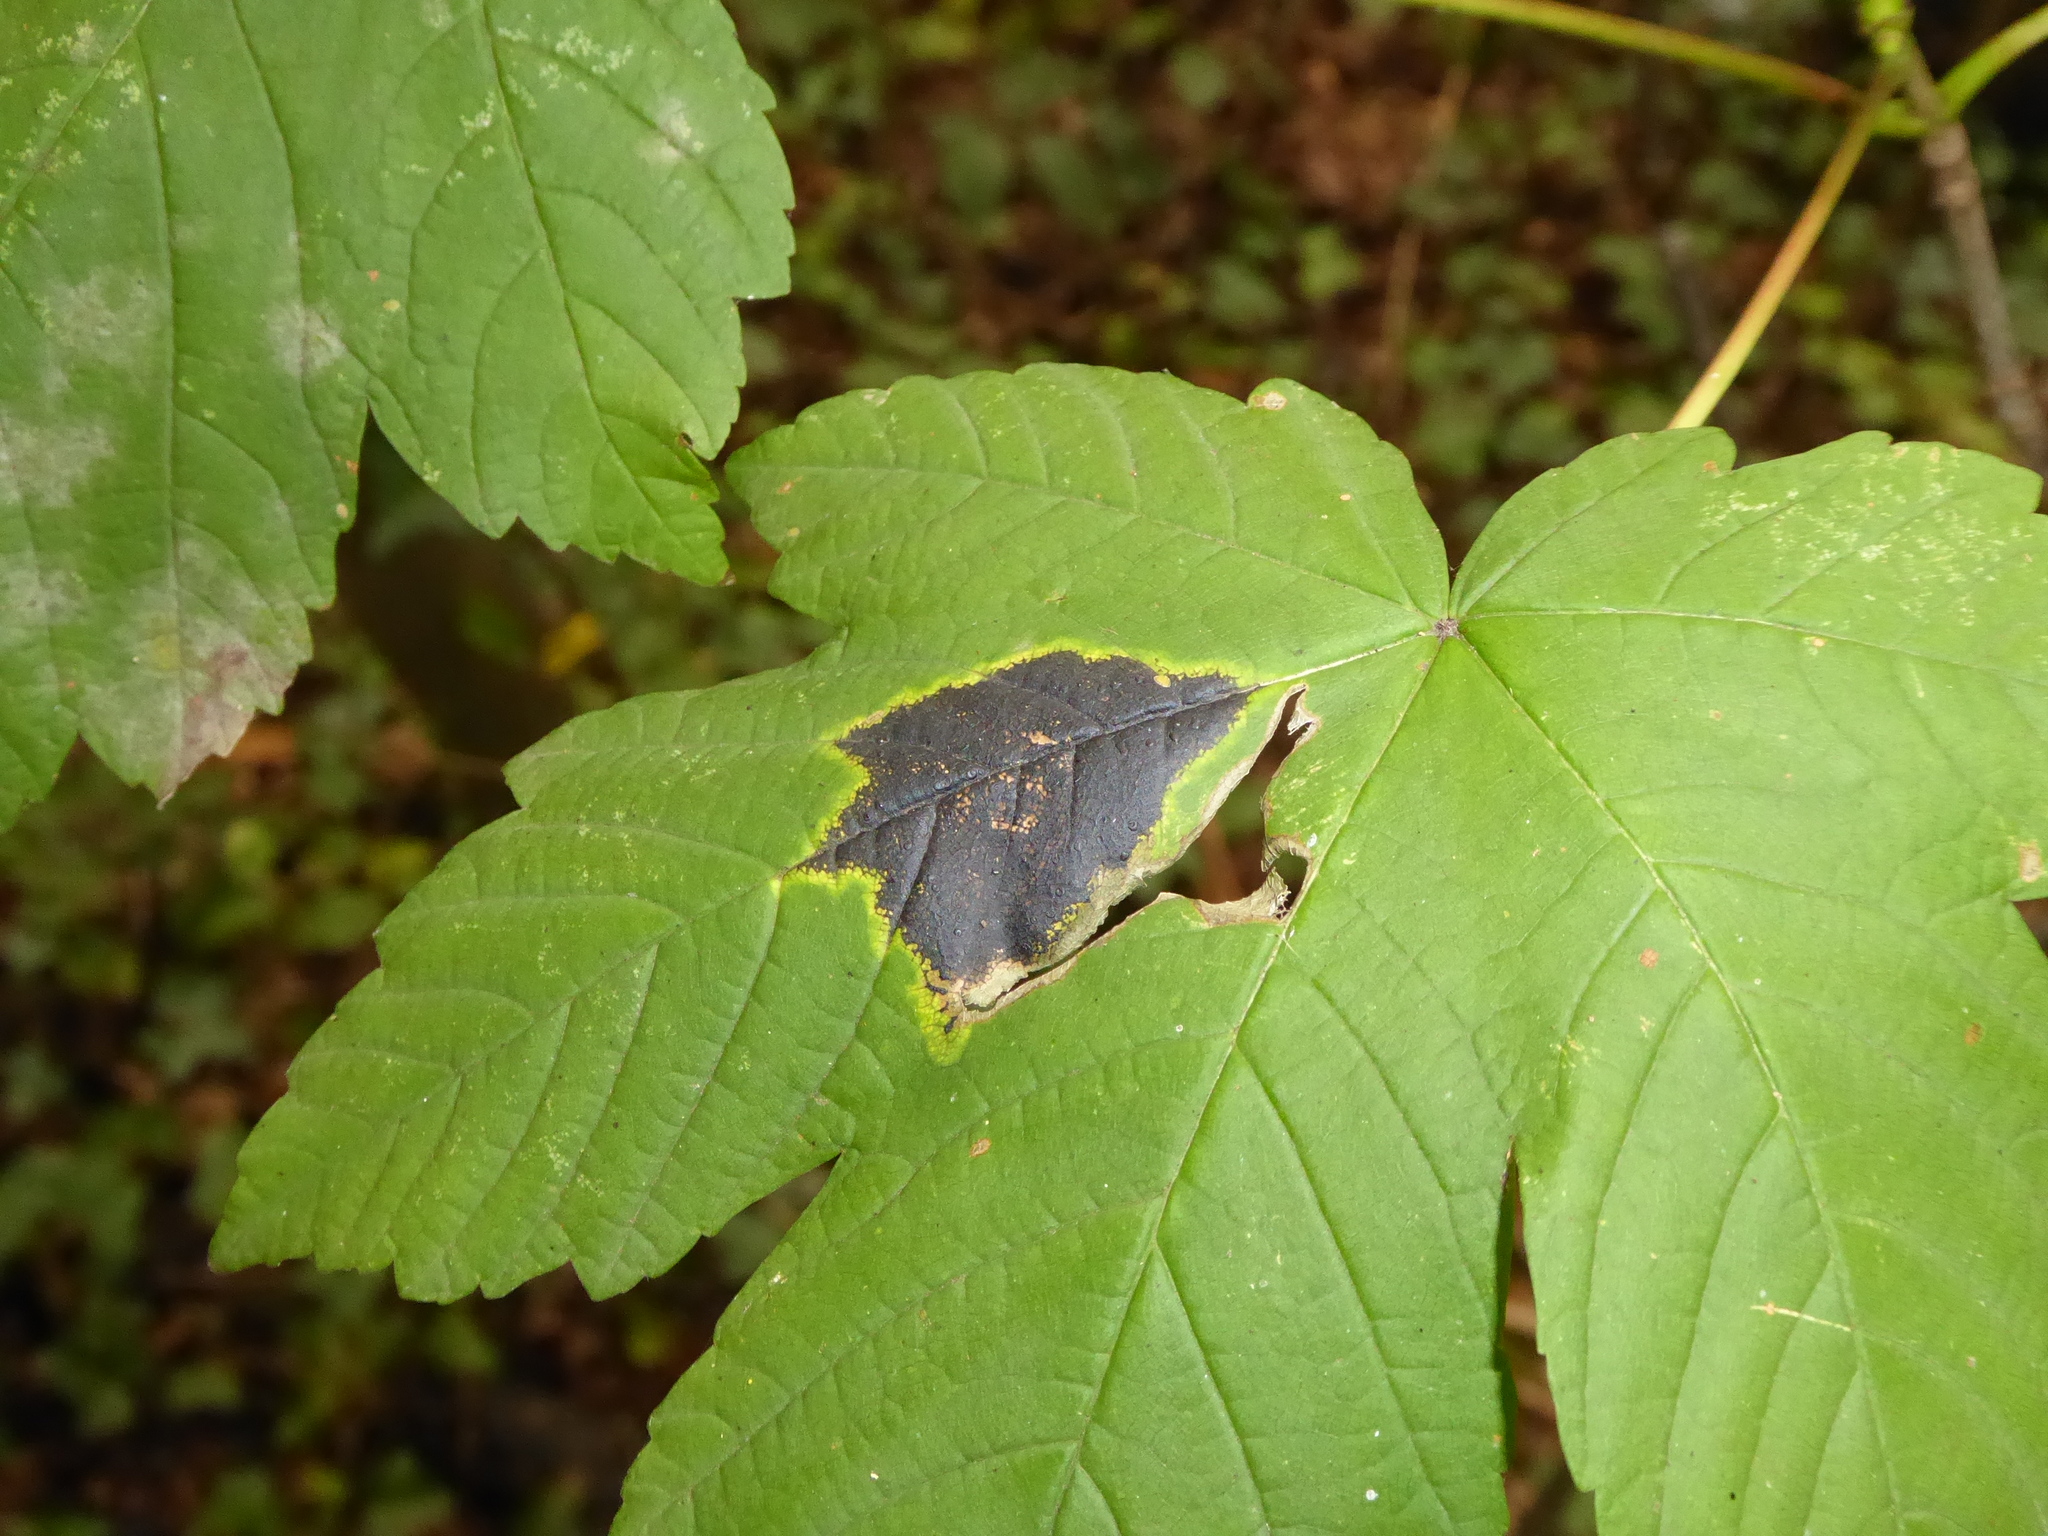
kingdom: Fungi
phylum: Ascomycota
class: Leotiomycetes
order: Rhytismatales
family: Rhytismataceae
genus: Rhytisma
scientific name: Rhytisma acerinum
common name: European tar spot
